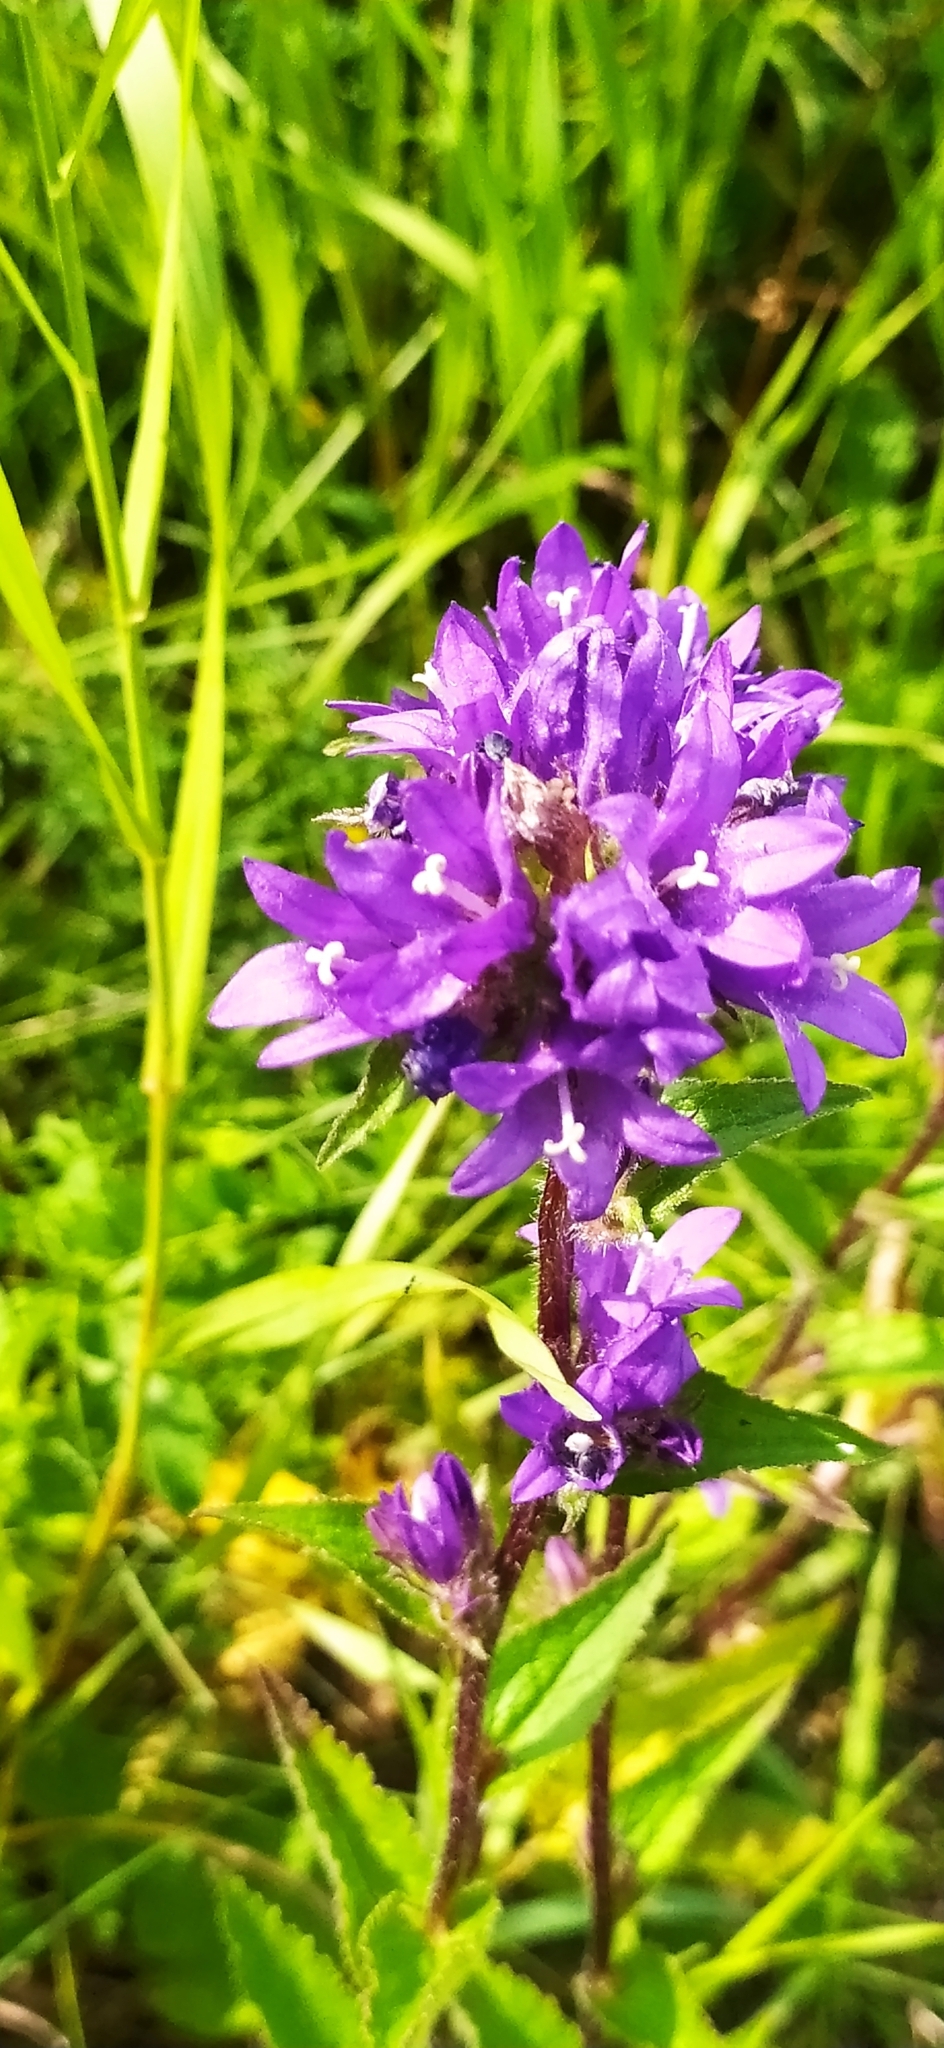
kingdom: Plantae
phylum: Tracheophyta
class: Magnoliopsida
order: Asterales
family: Campanulaceae
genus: Campanula
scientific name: Campanula glomerata
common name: Clustered bellflower
